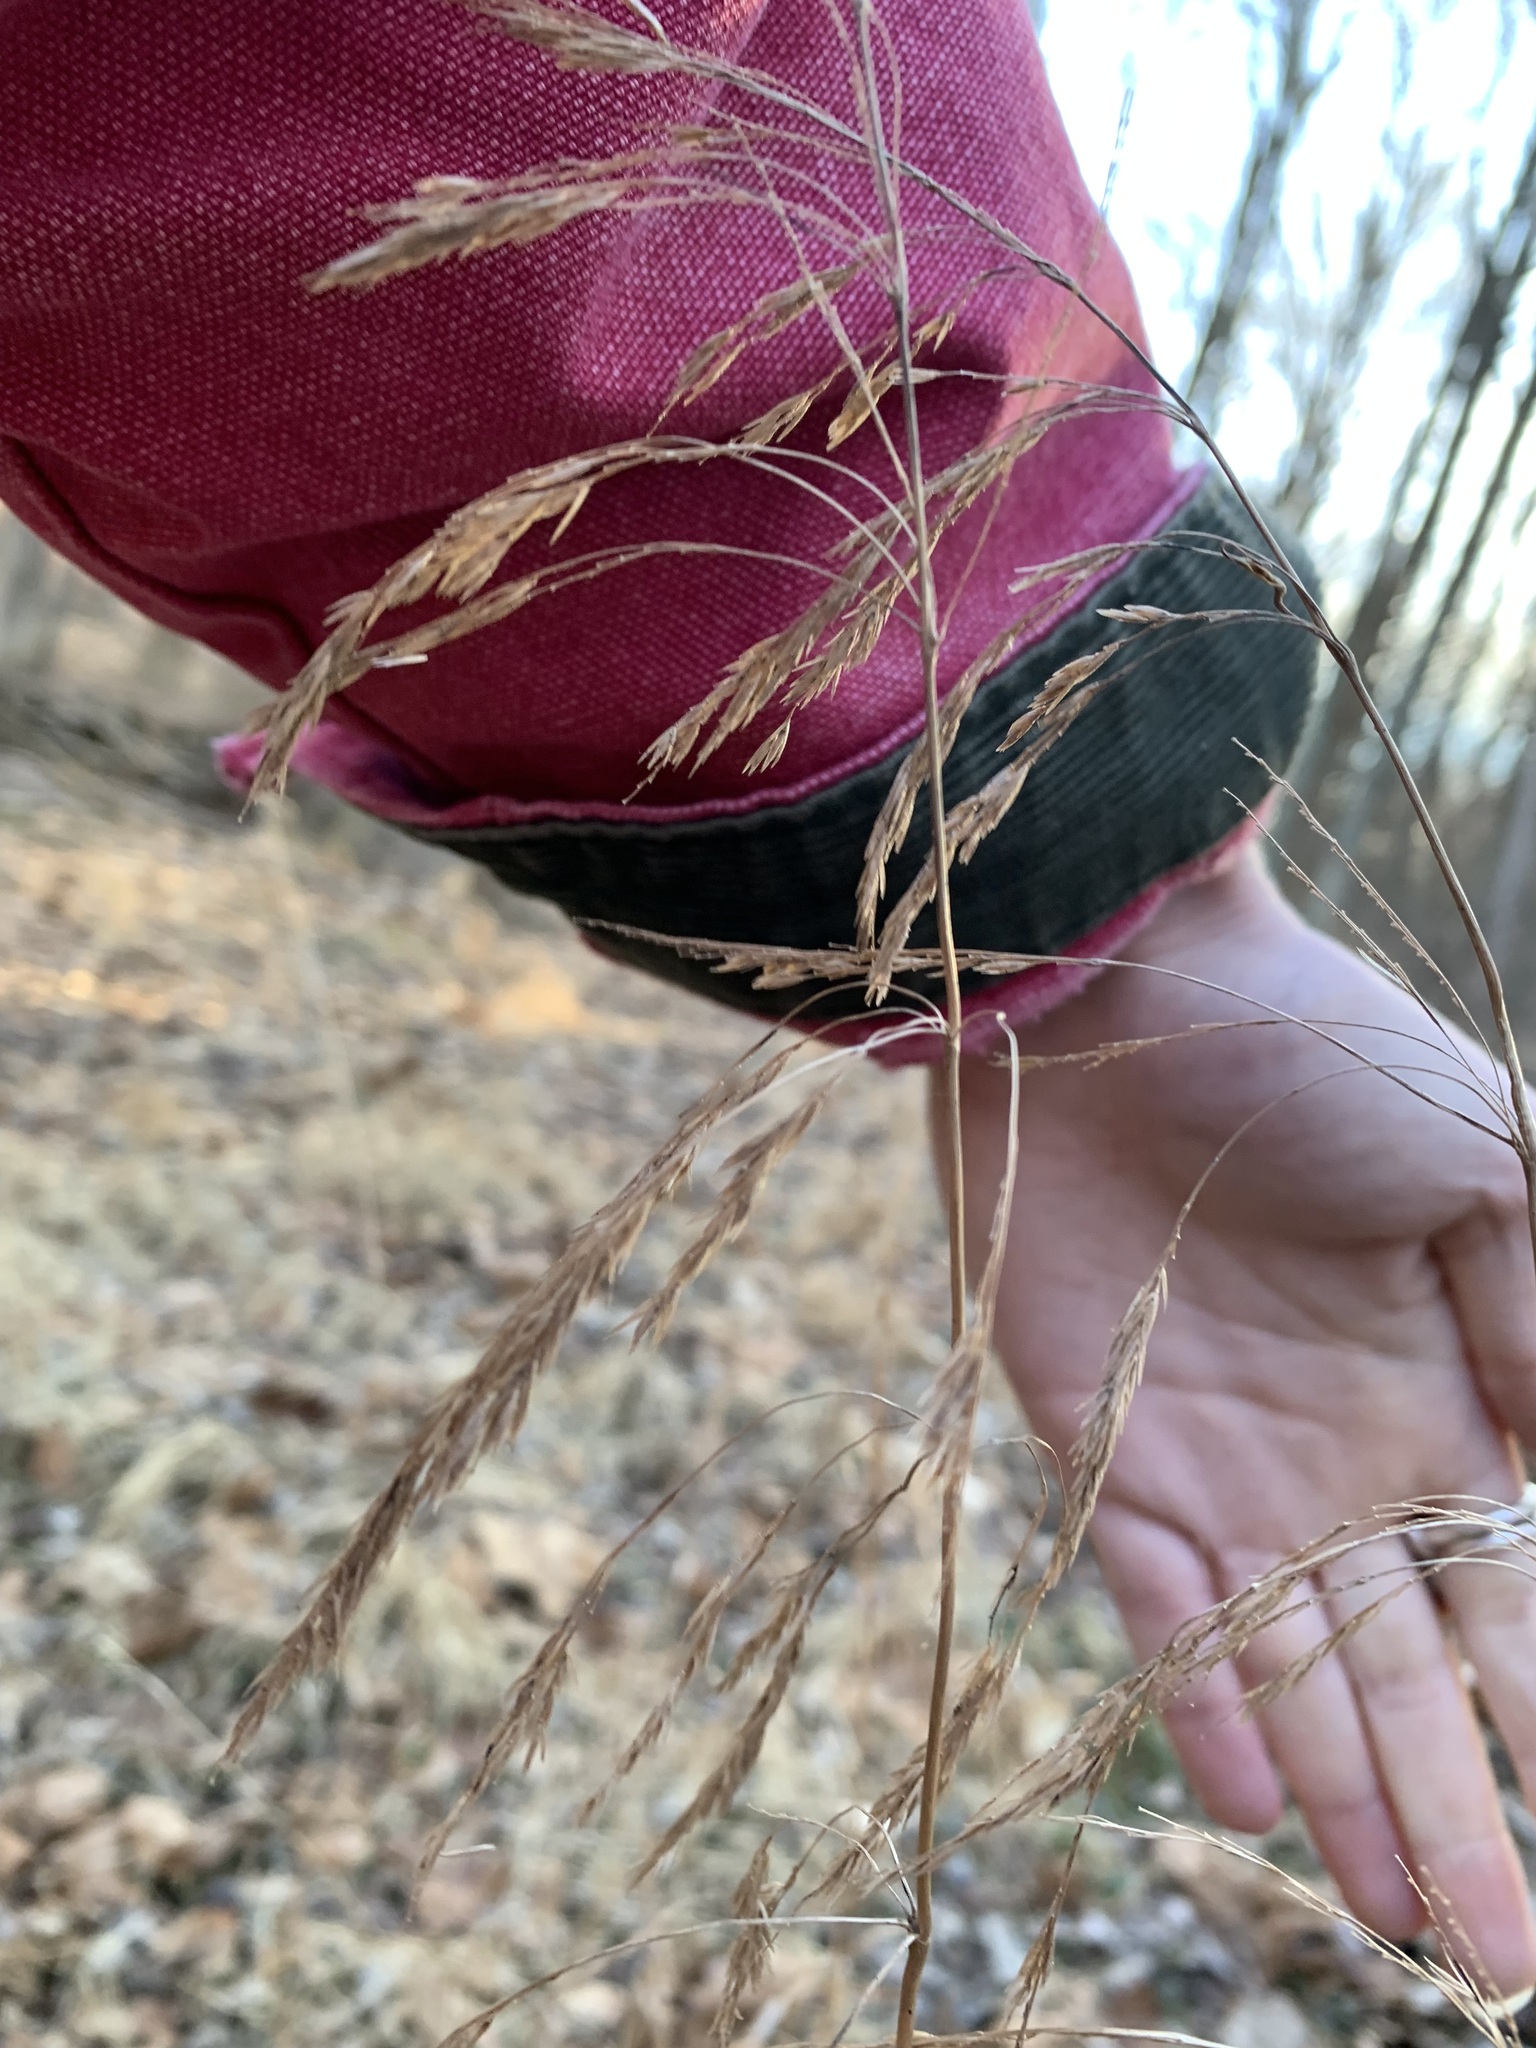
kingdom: Plantae
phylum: Tracheophyta
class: Liliopsida
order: Poales
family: Poaceae
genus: Cinna
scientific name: Cinna arundinacea
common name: Stout woodreed
